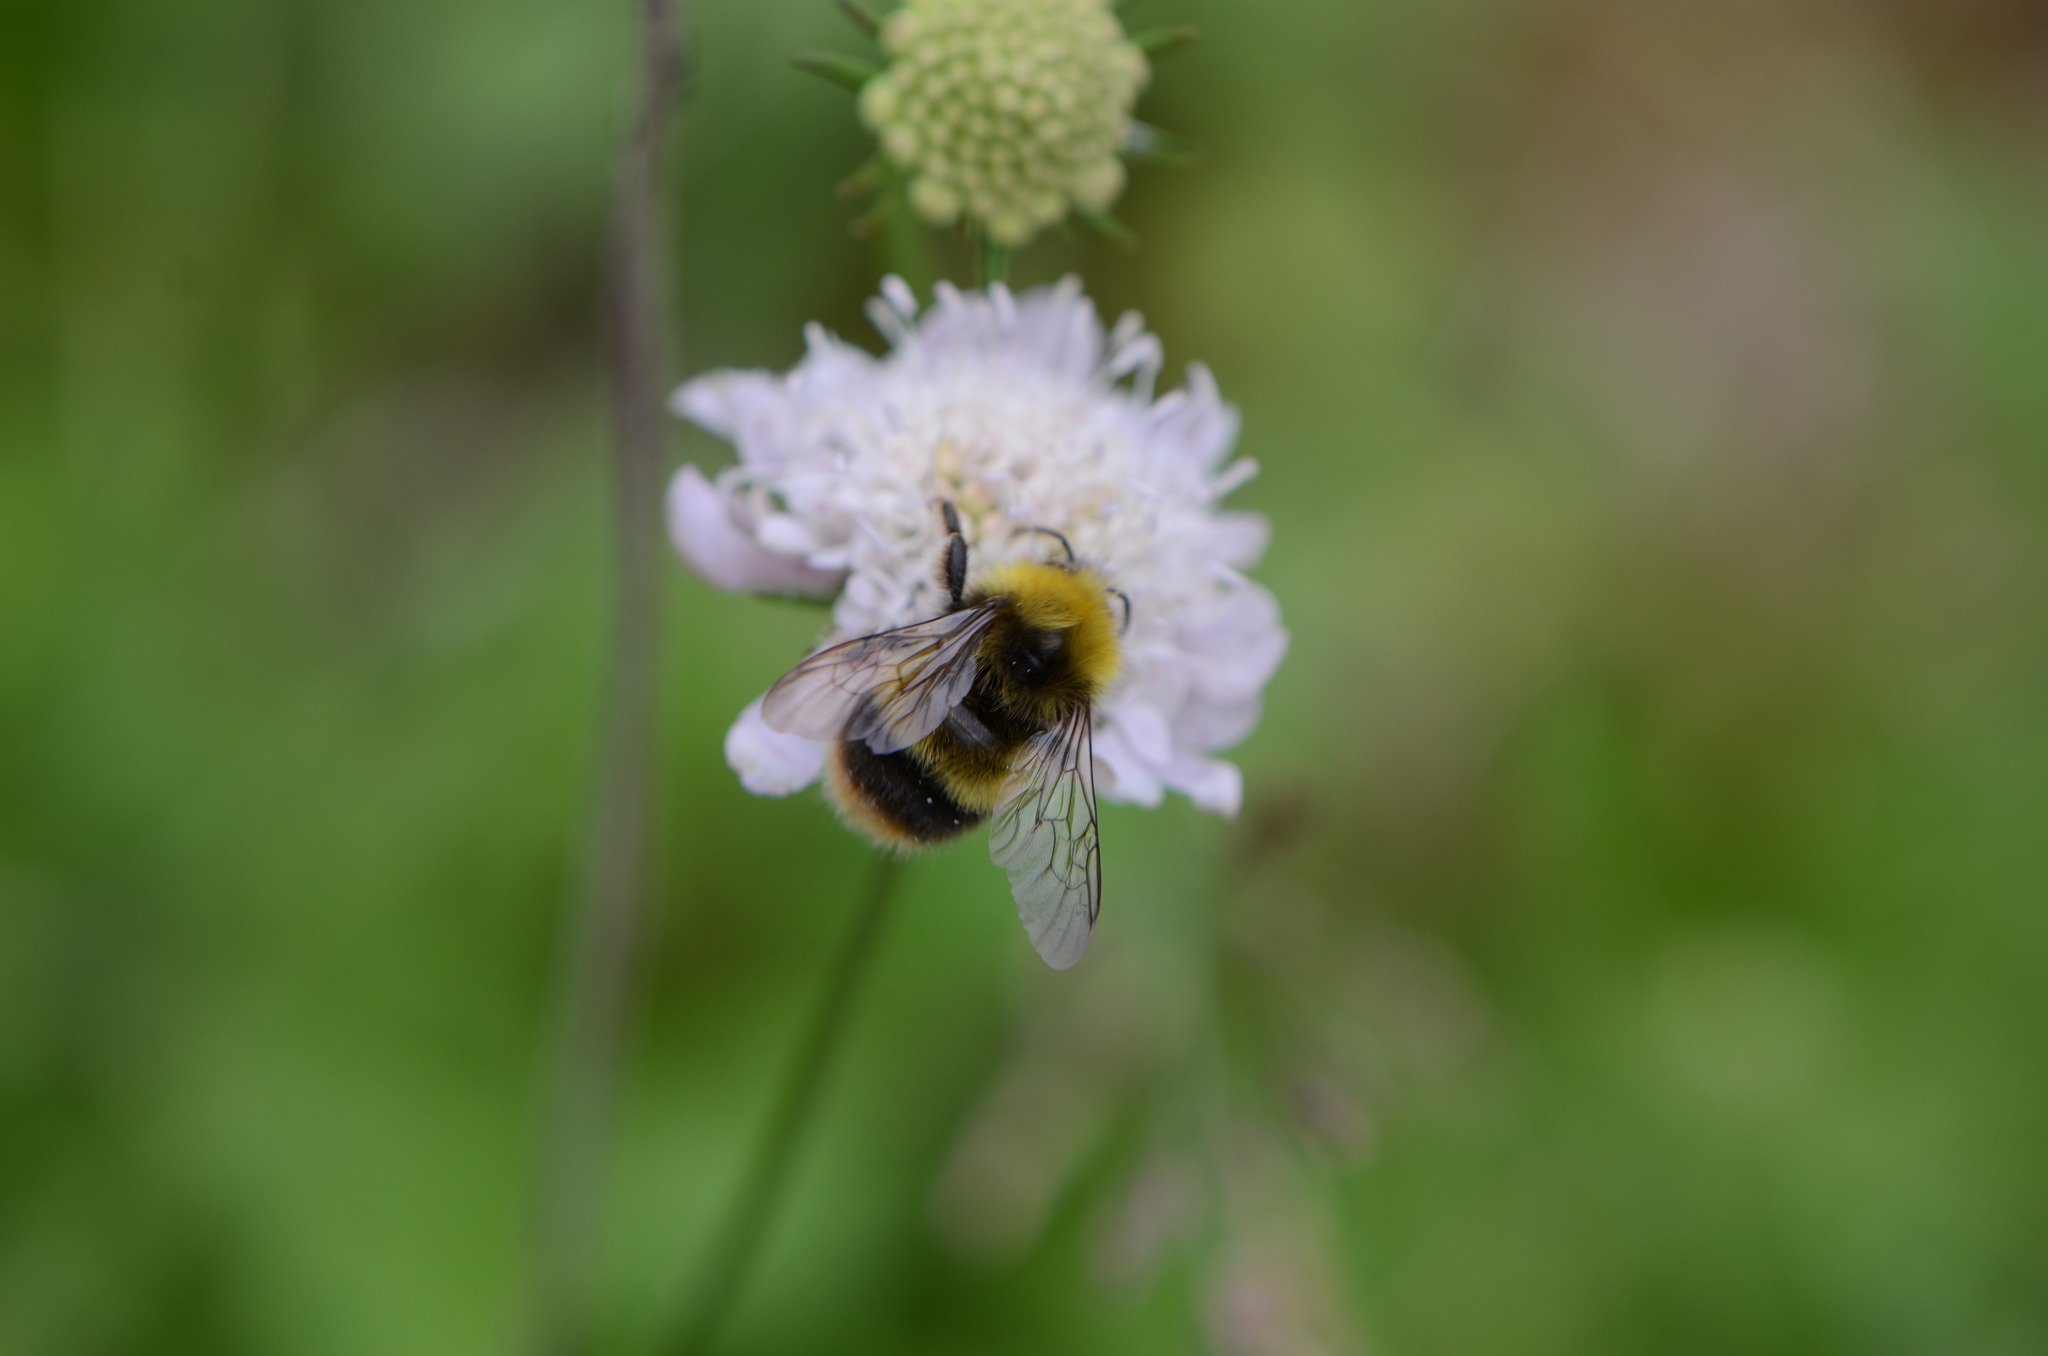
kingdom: Animalia
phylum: Arthropoda
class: Insecta
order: Hymenoptera
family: Apidae
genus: Bombus
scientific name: Bombus pratorum
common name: Early humble-bee
